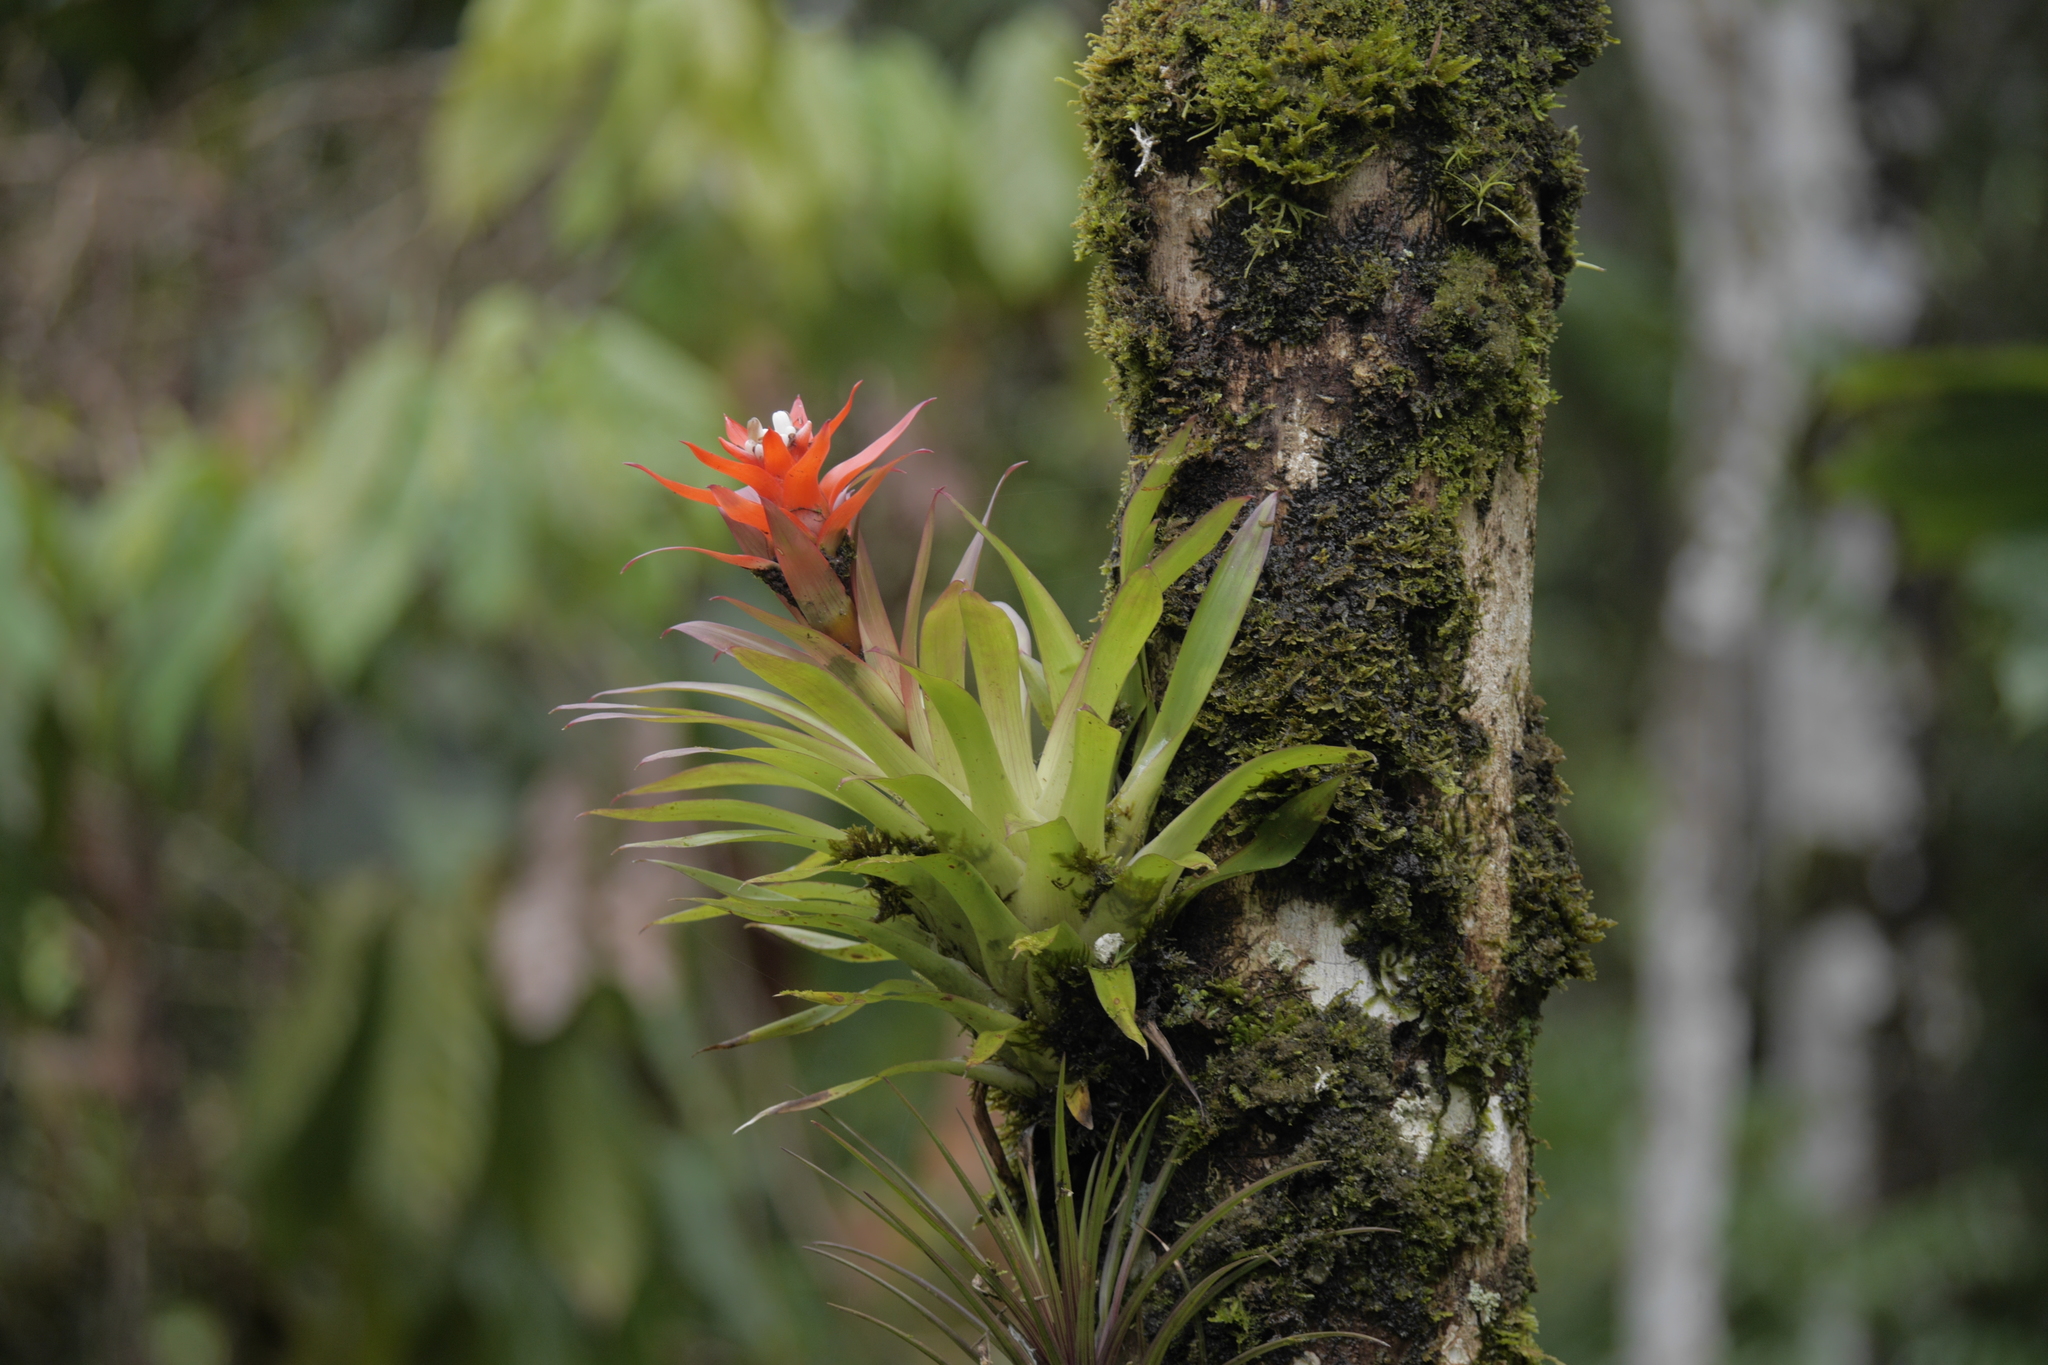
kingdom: Plantae
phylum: Tracheophyta
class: Liliopsida
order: Poales
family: Bromeliaceae
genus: Guzmania
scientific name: Guzmania lingulata
